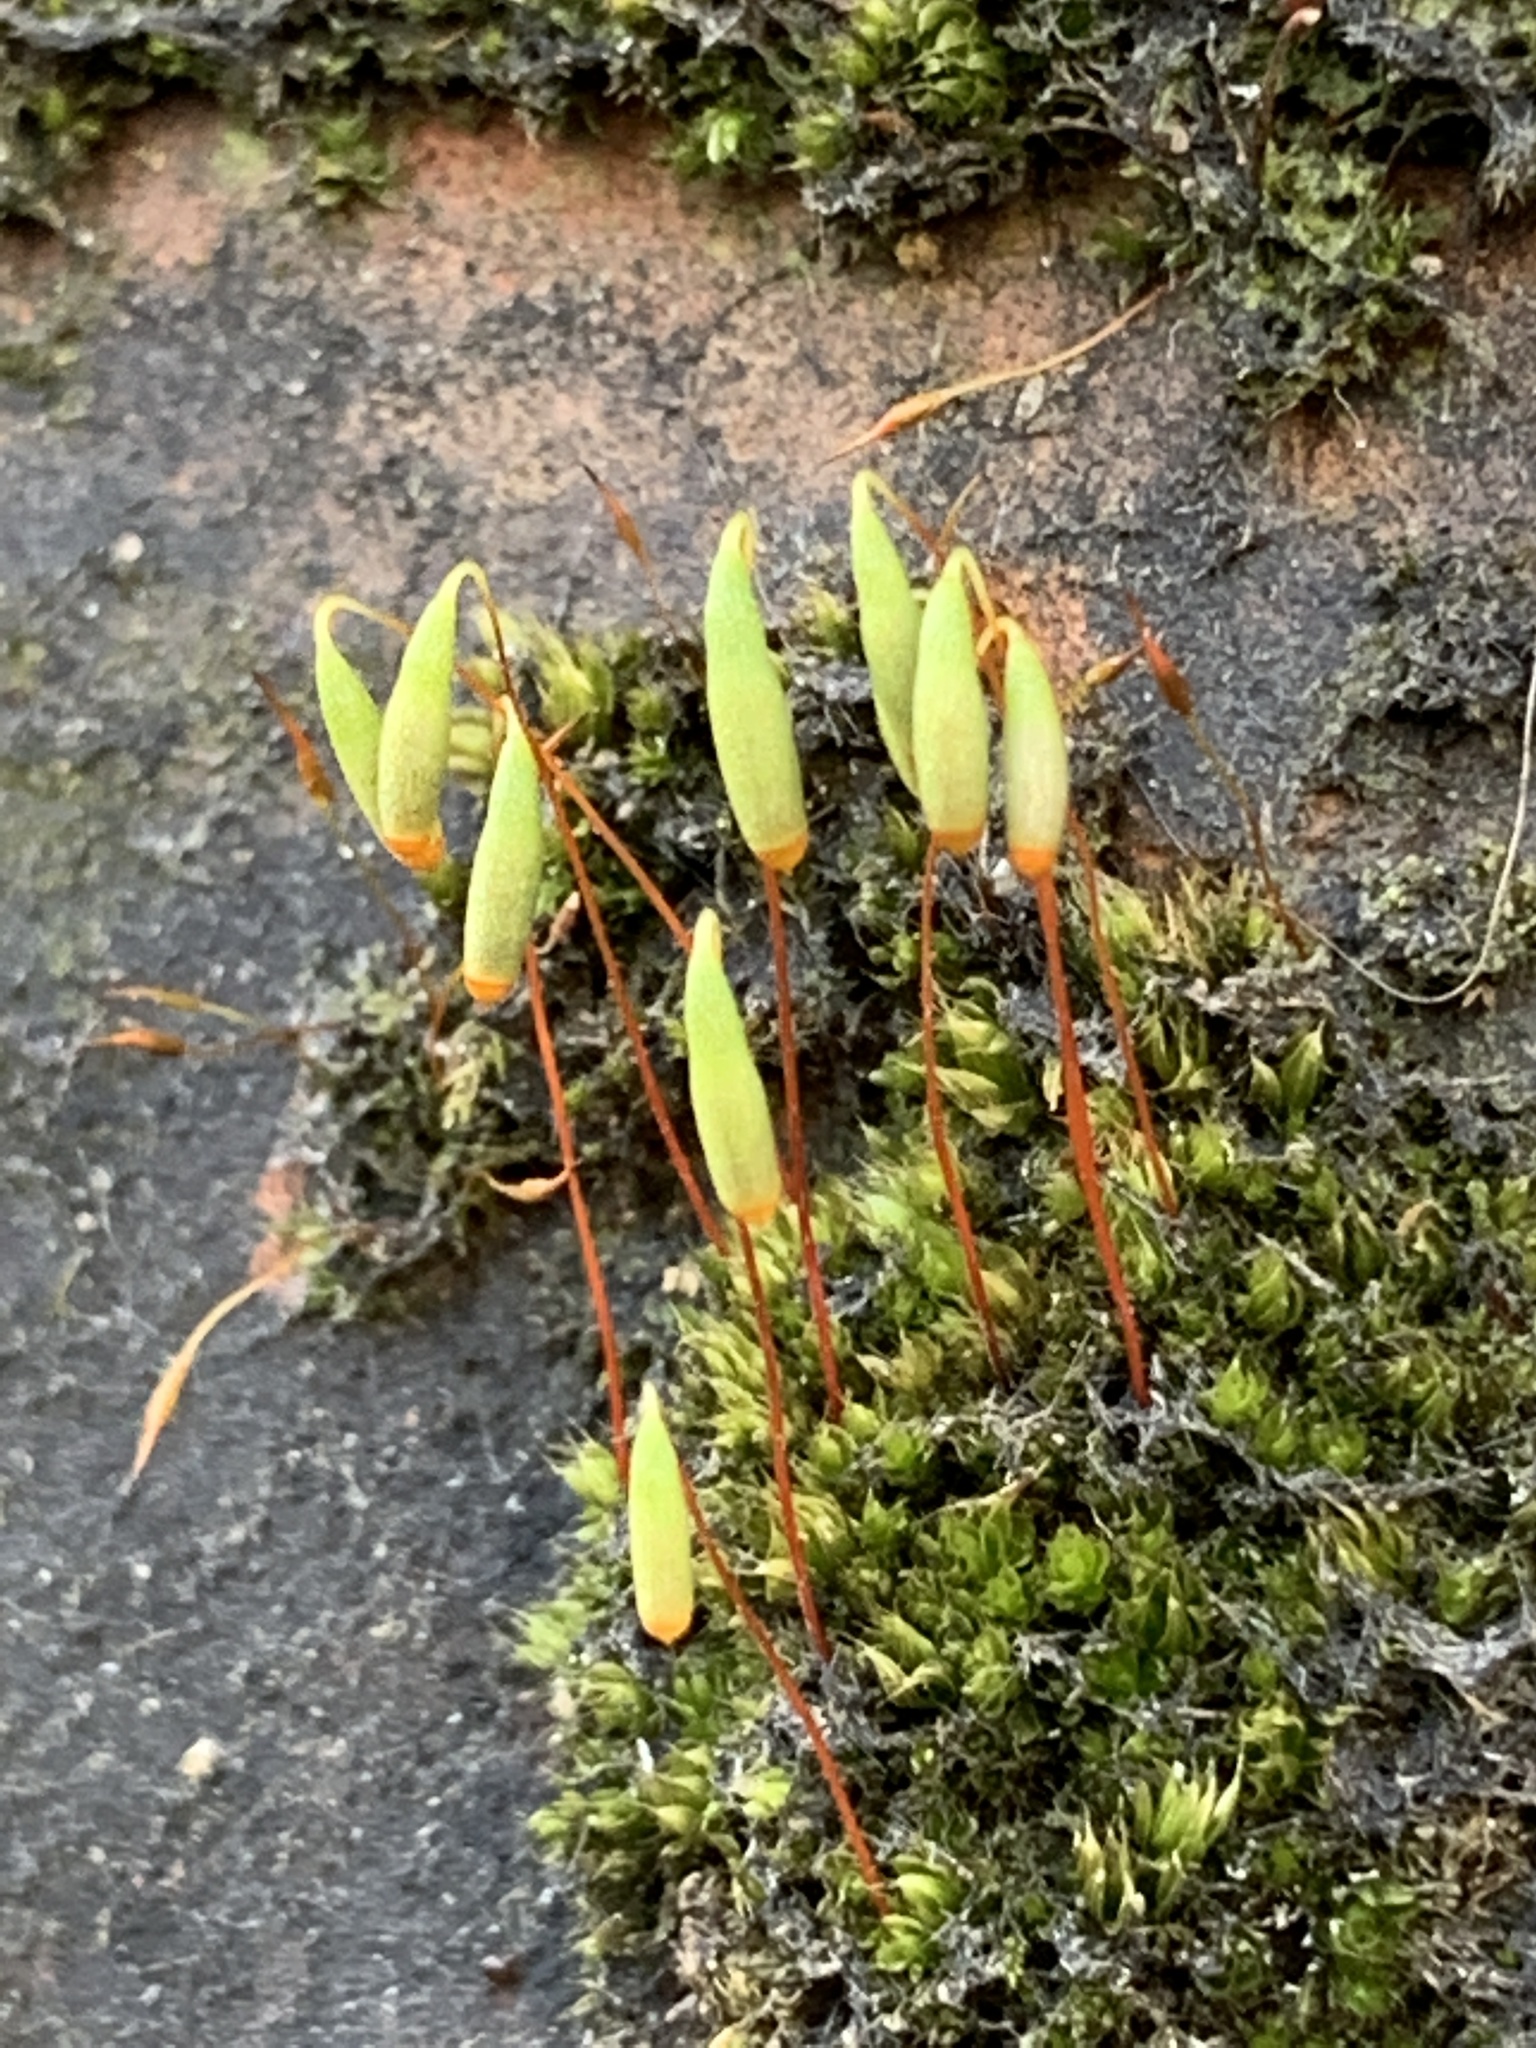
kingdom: Plantae
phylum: Bryophyta
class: Bryopsida
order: Bryales
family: Bryaceae
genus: Rosulabryum
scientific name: Rosulabryum capillare
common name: Capillary thread-moss
